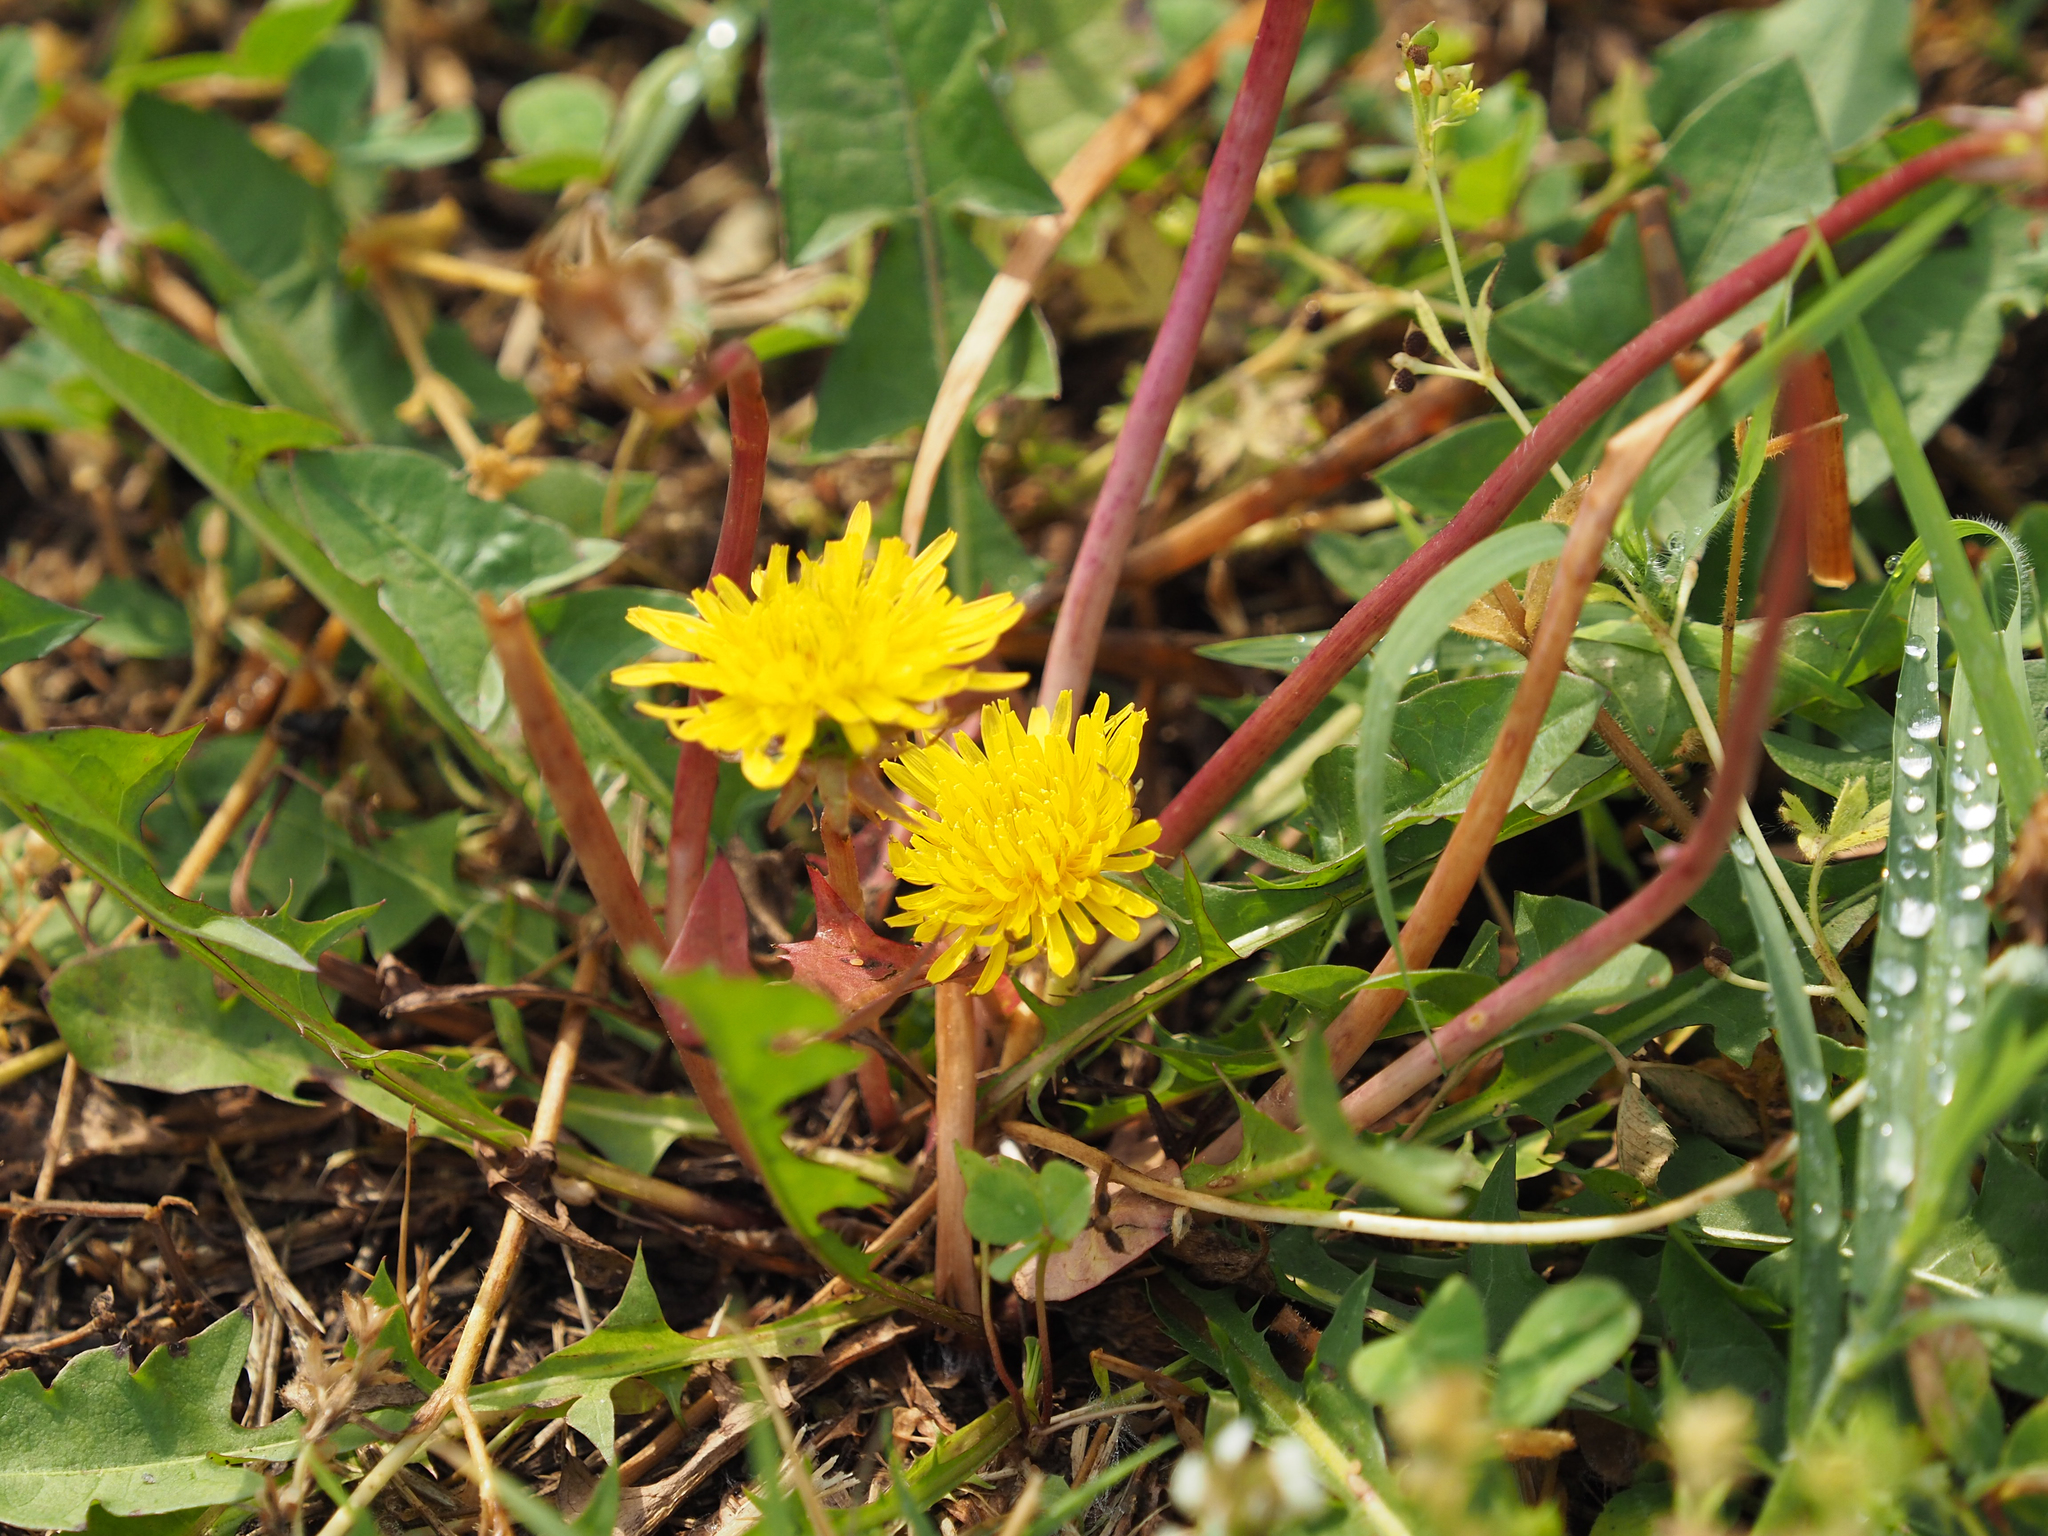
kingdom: Plantae
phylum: Tracheophyta
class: Magnoliopsida
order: Asterales
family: Asteraceae
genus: Taraxacum
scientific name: Taraxacum officinale
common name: Common dandelion
